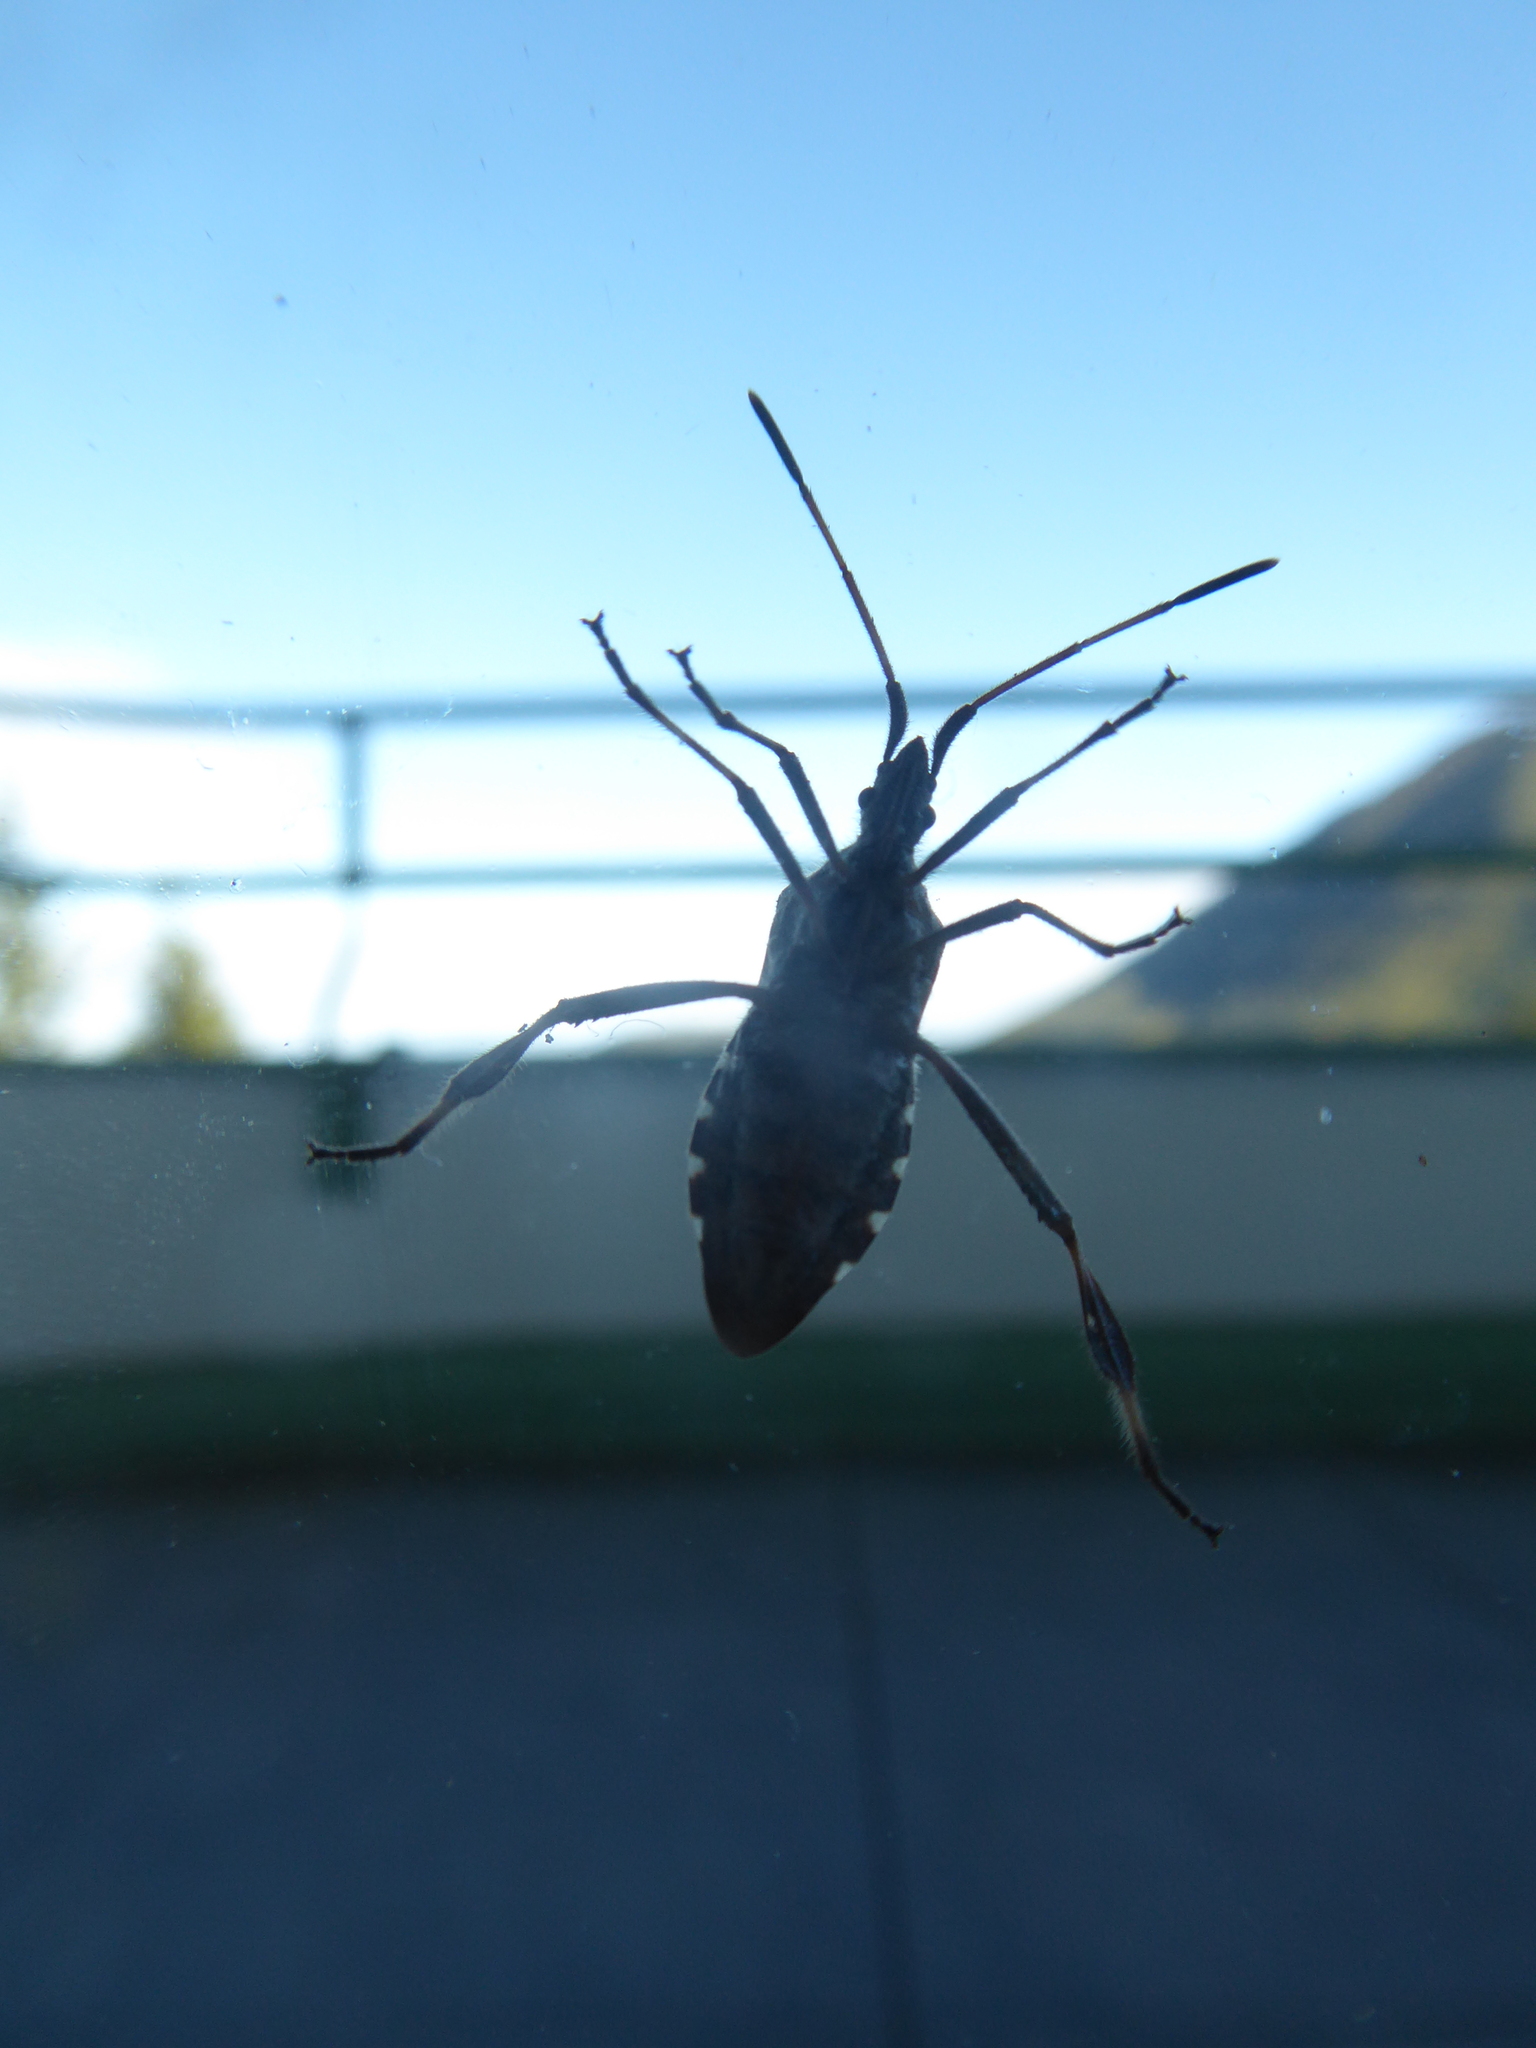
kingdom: Animalia
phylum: Arthropoda
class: Insecta
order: Hemiptera
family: Coreidae
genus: Leptoglossus
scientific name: Leptoglossus occidentalis
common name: Western conifer-seed bug
